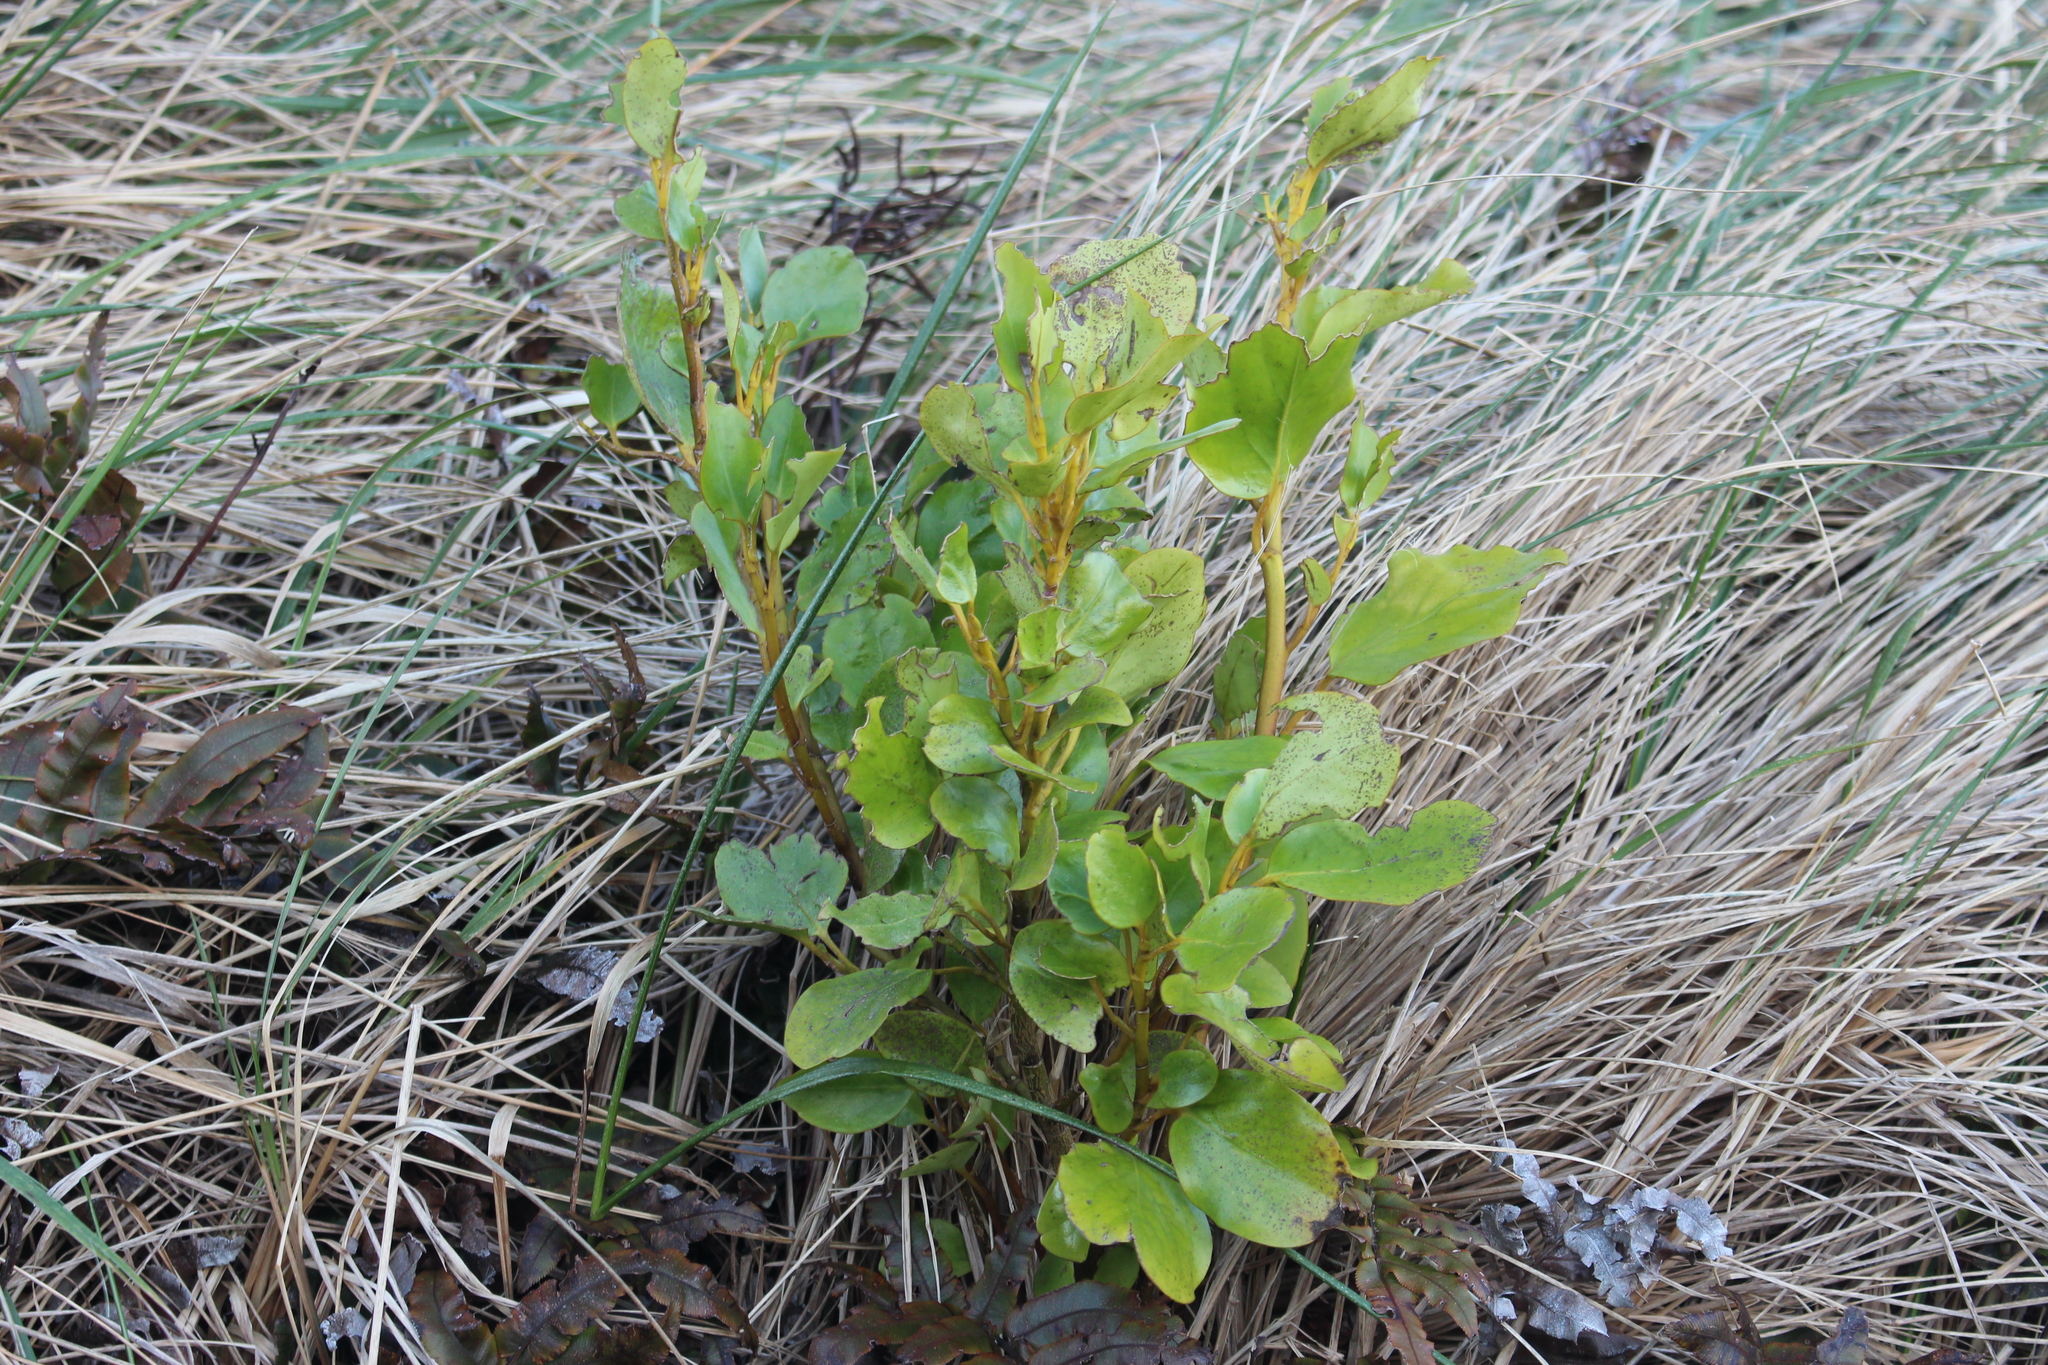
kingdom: Plantae
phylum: Tracheophyta
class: Magnoliopsida
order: Apiales
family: Griseliniaceae
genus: Griselinia
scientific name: Griselinia littoralis
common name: New zealand broadleaf
